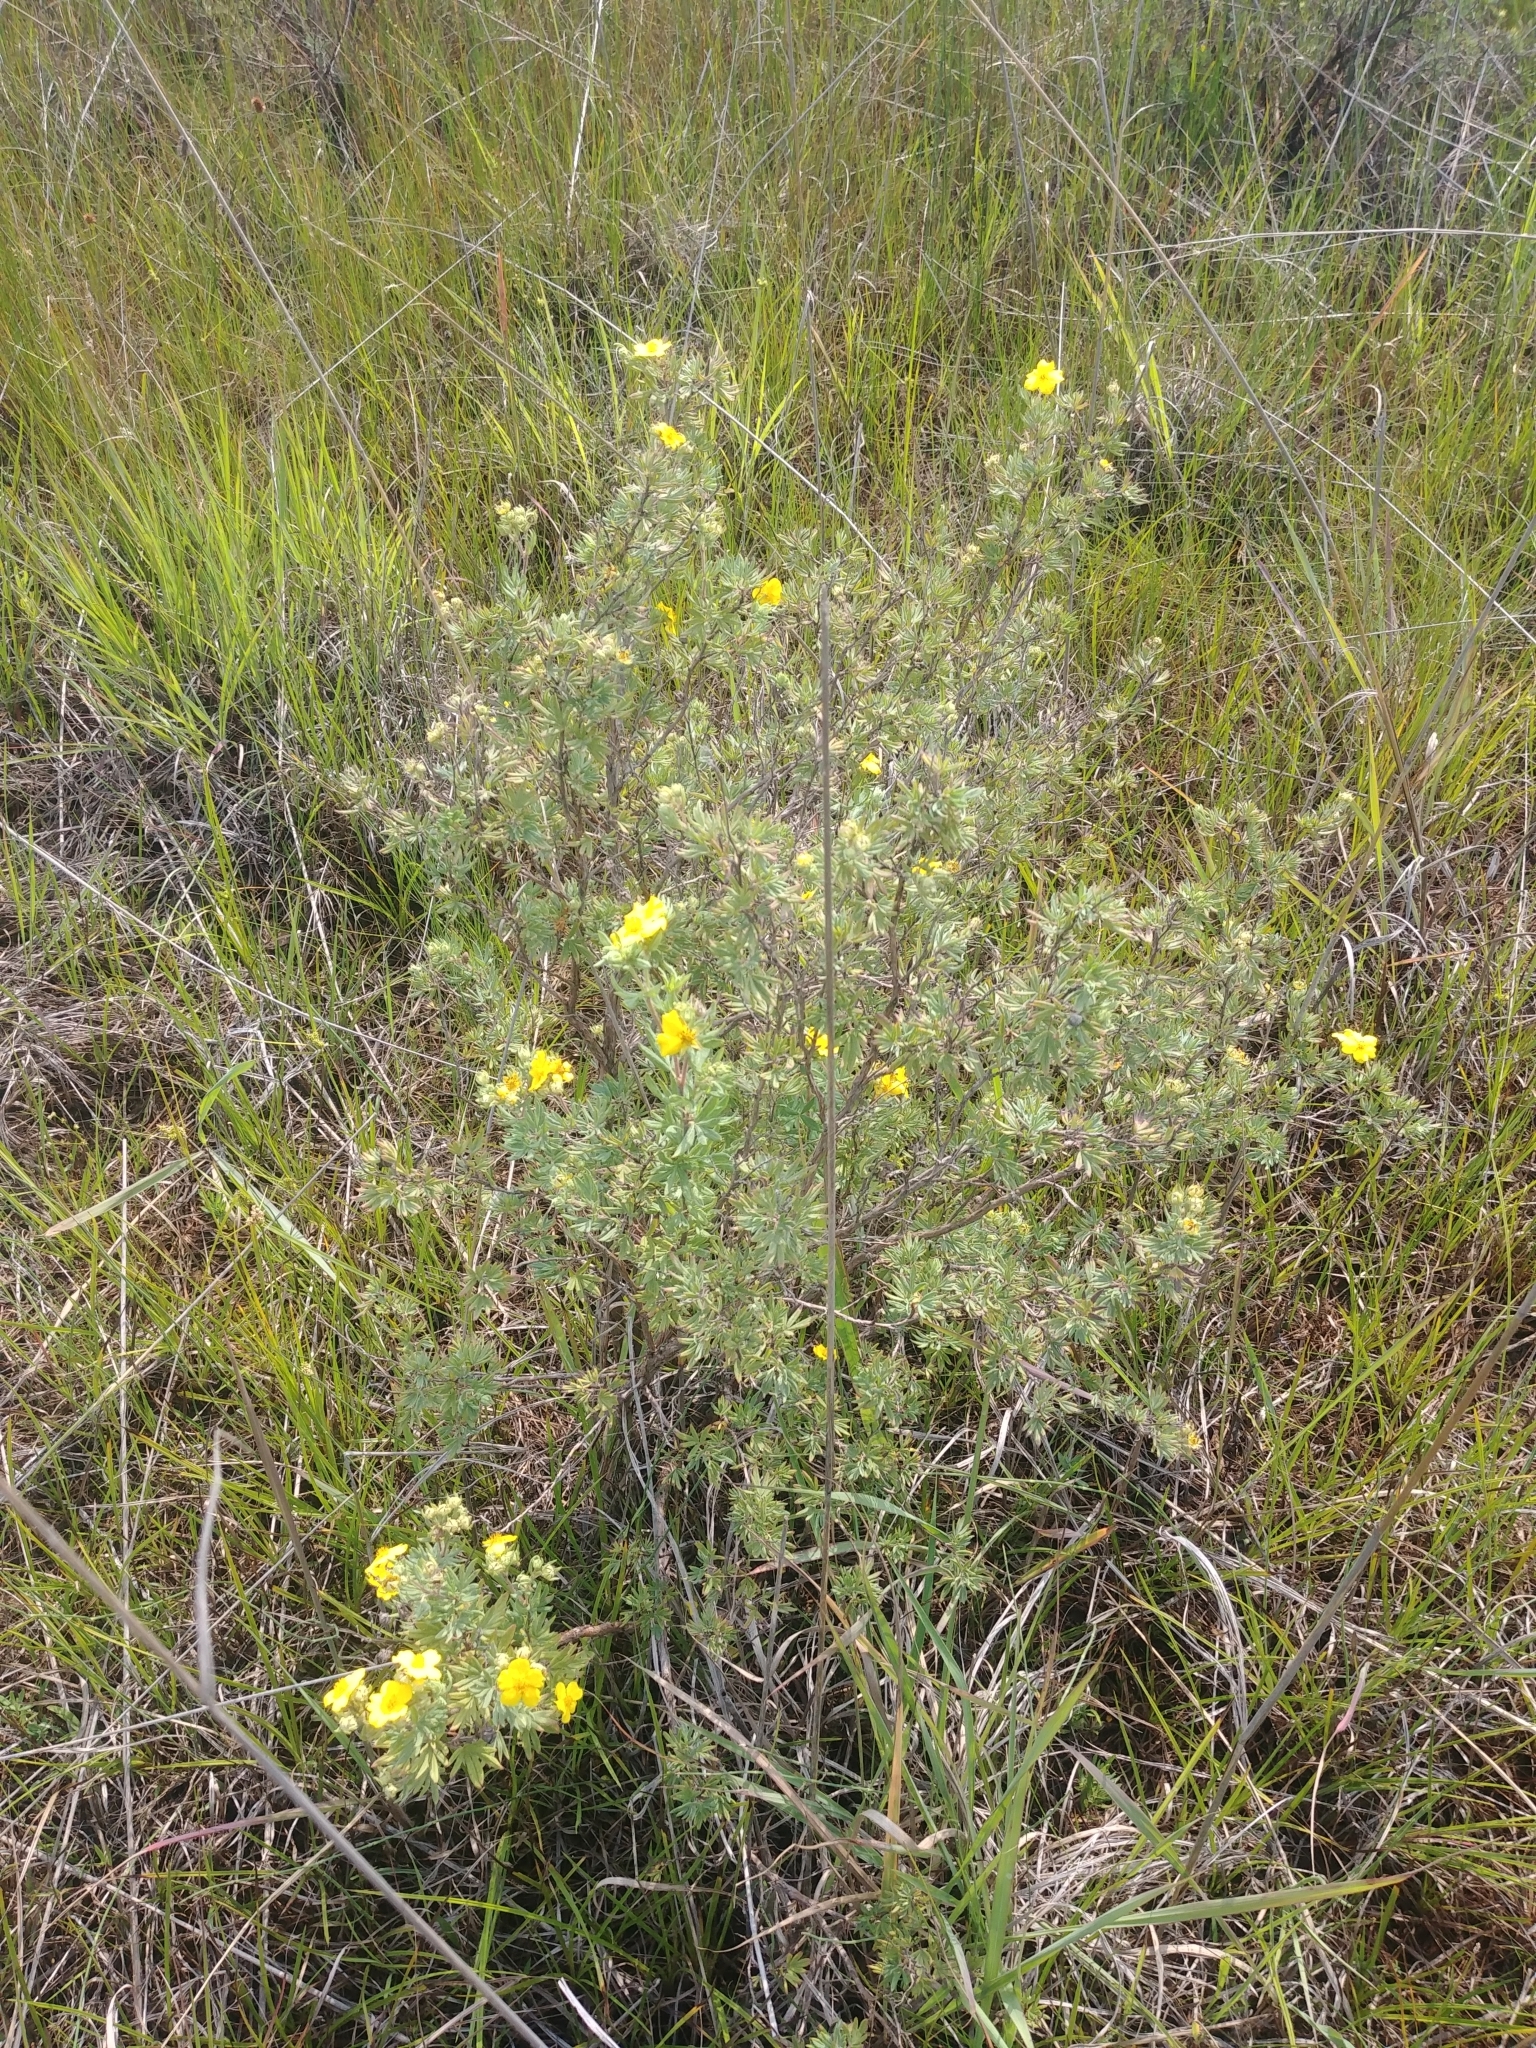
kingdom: Plantae
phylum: Tracheophyta
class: Magnoliopsida
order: Rosales
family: Rosaceae
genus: Dasiphora
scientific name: Dasiphora fruticosa
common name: Shrubby cinquefoil
